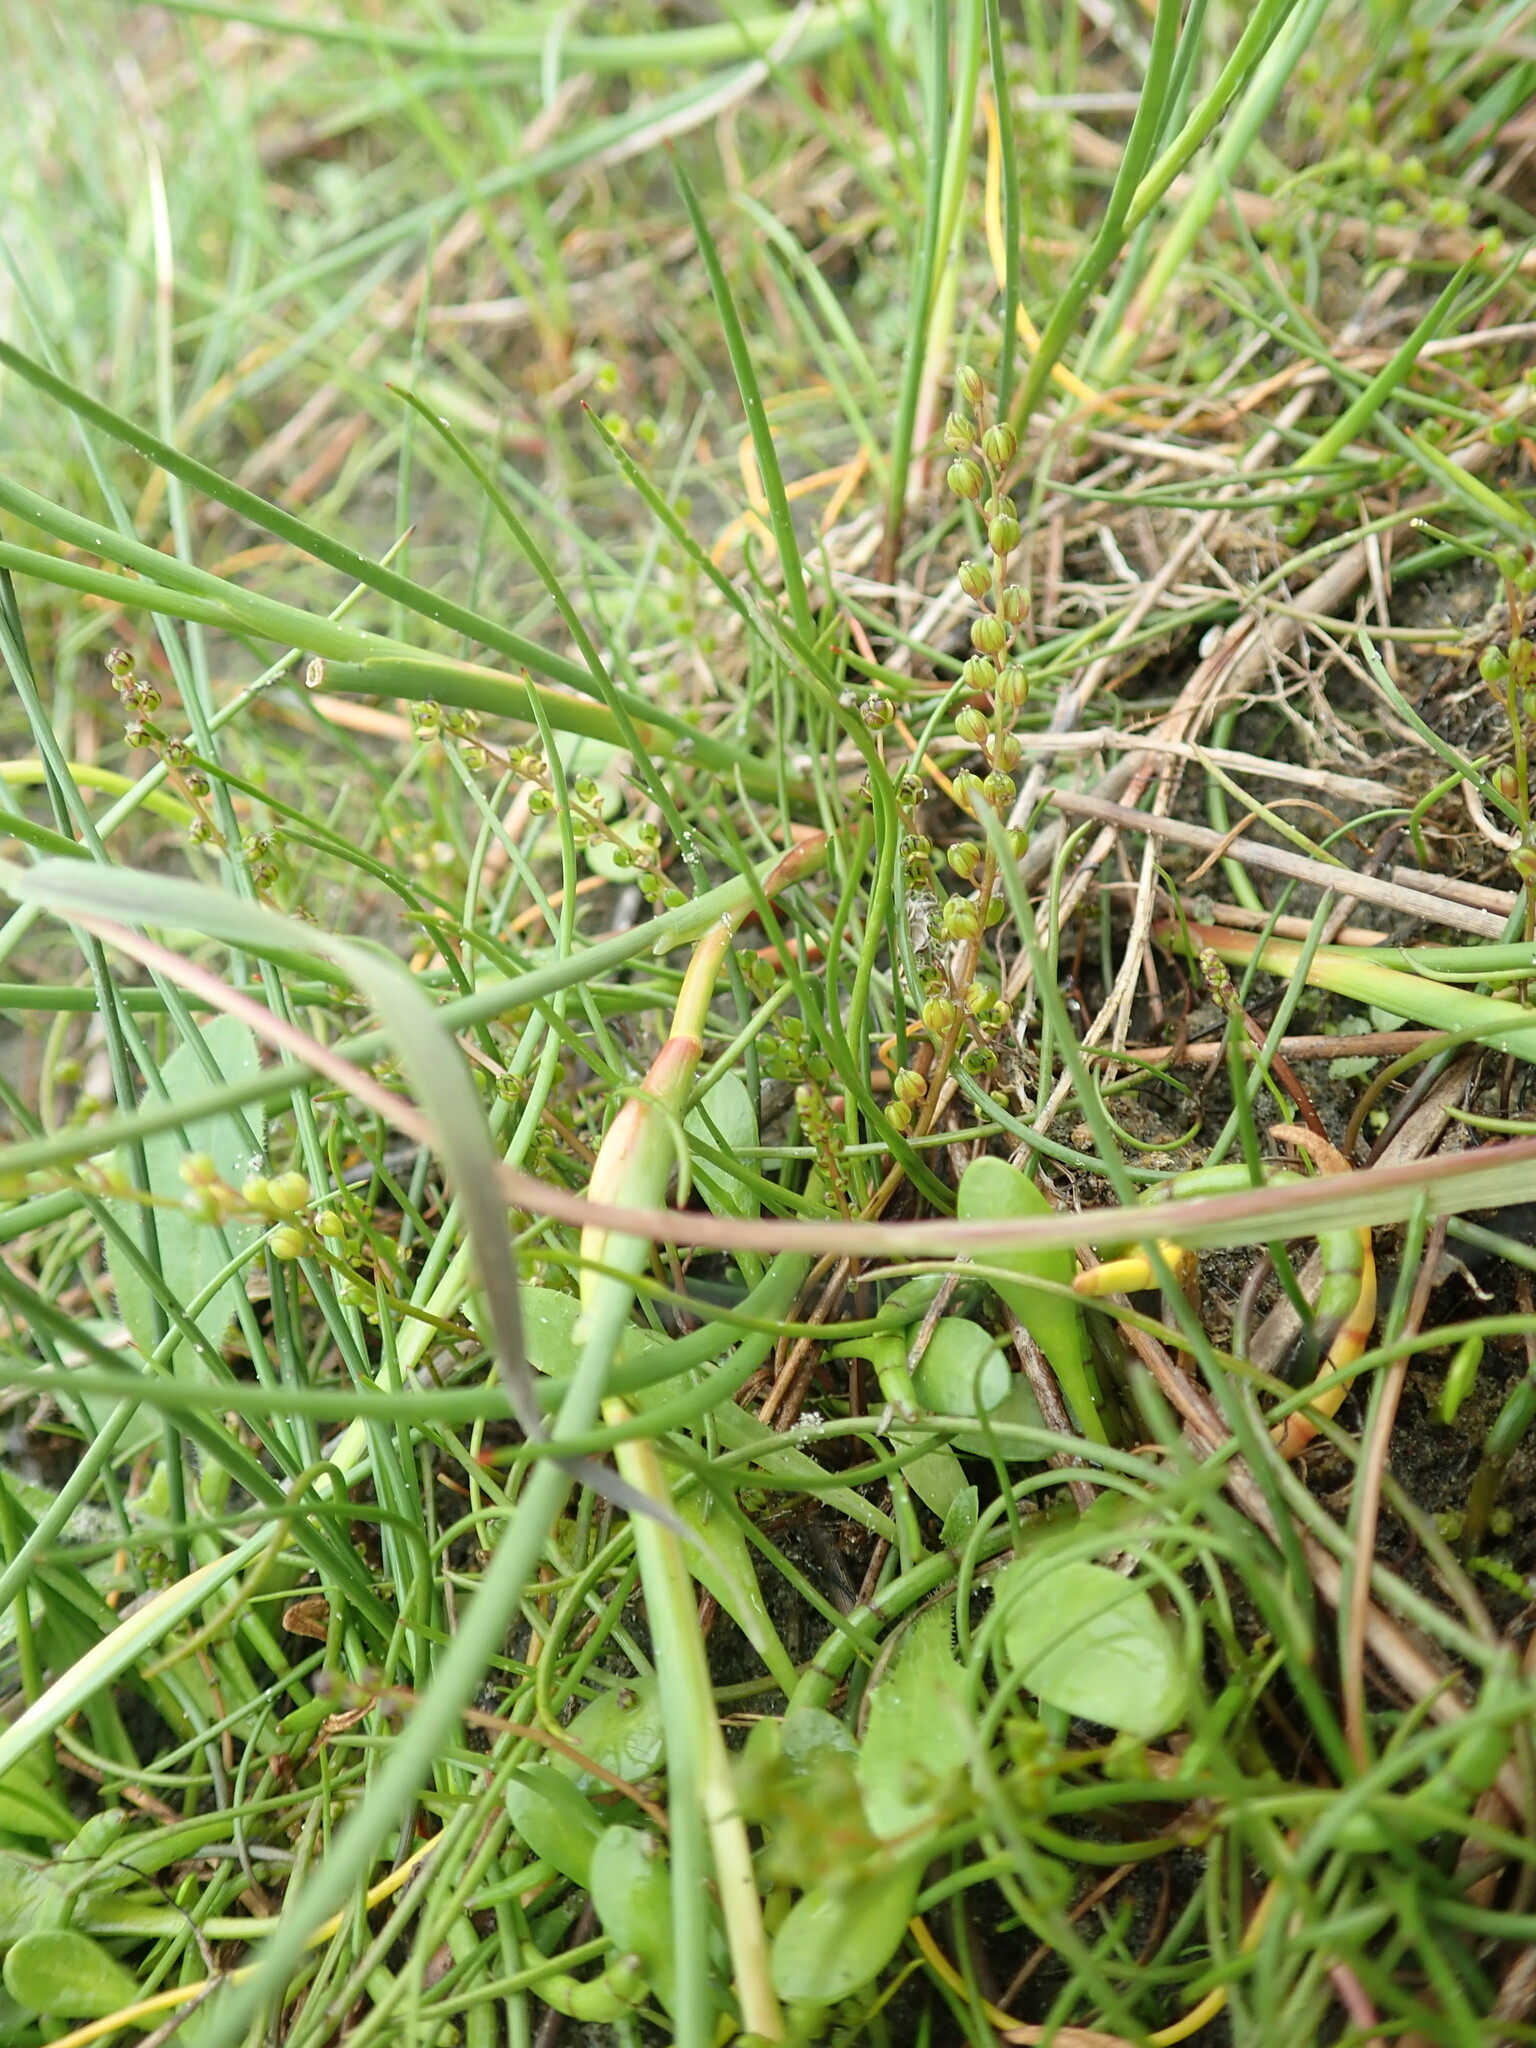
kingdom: Plantae
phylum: Tracheophyta
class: Liliopsida
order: Alismatales
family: Juncaginaceae
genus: Triglochin
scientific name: Triglochin striata
